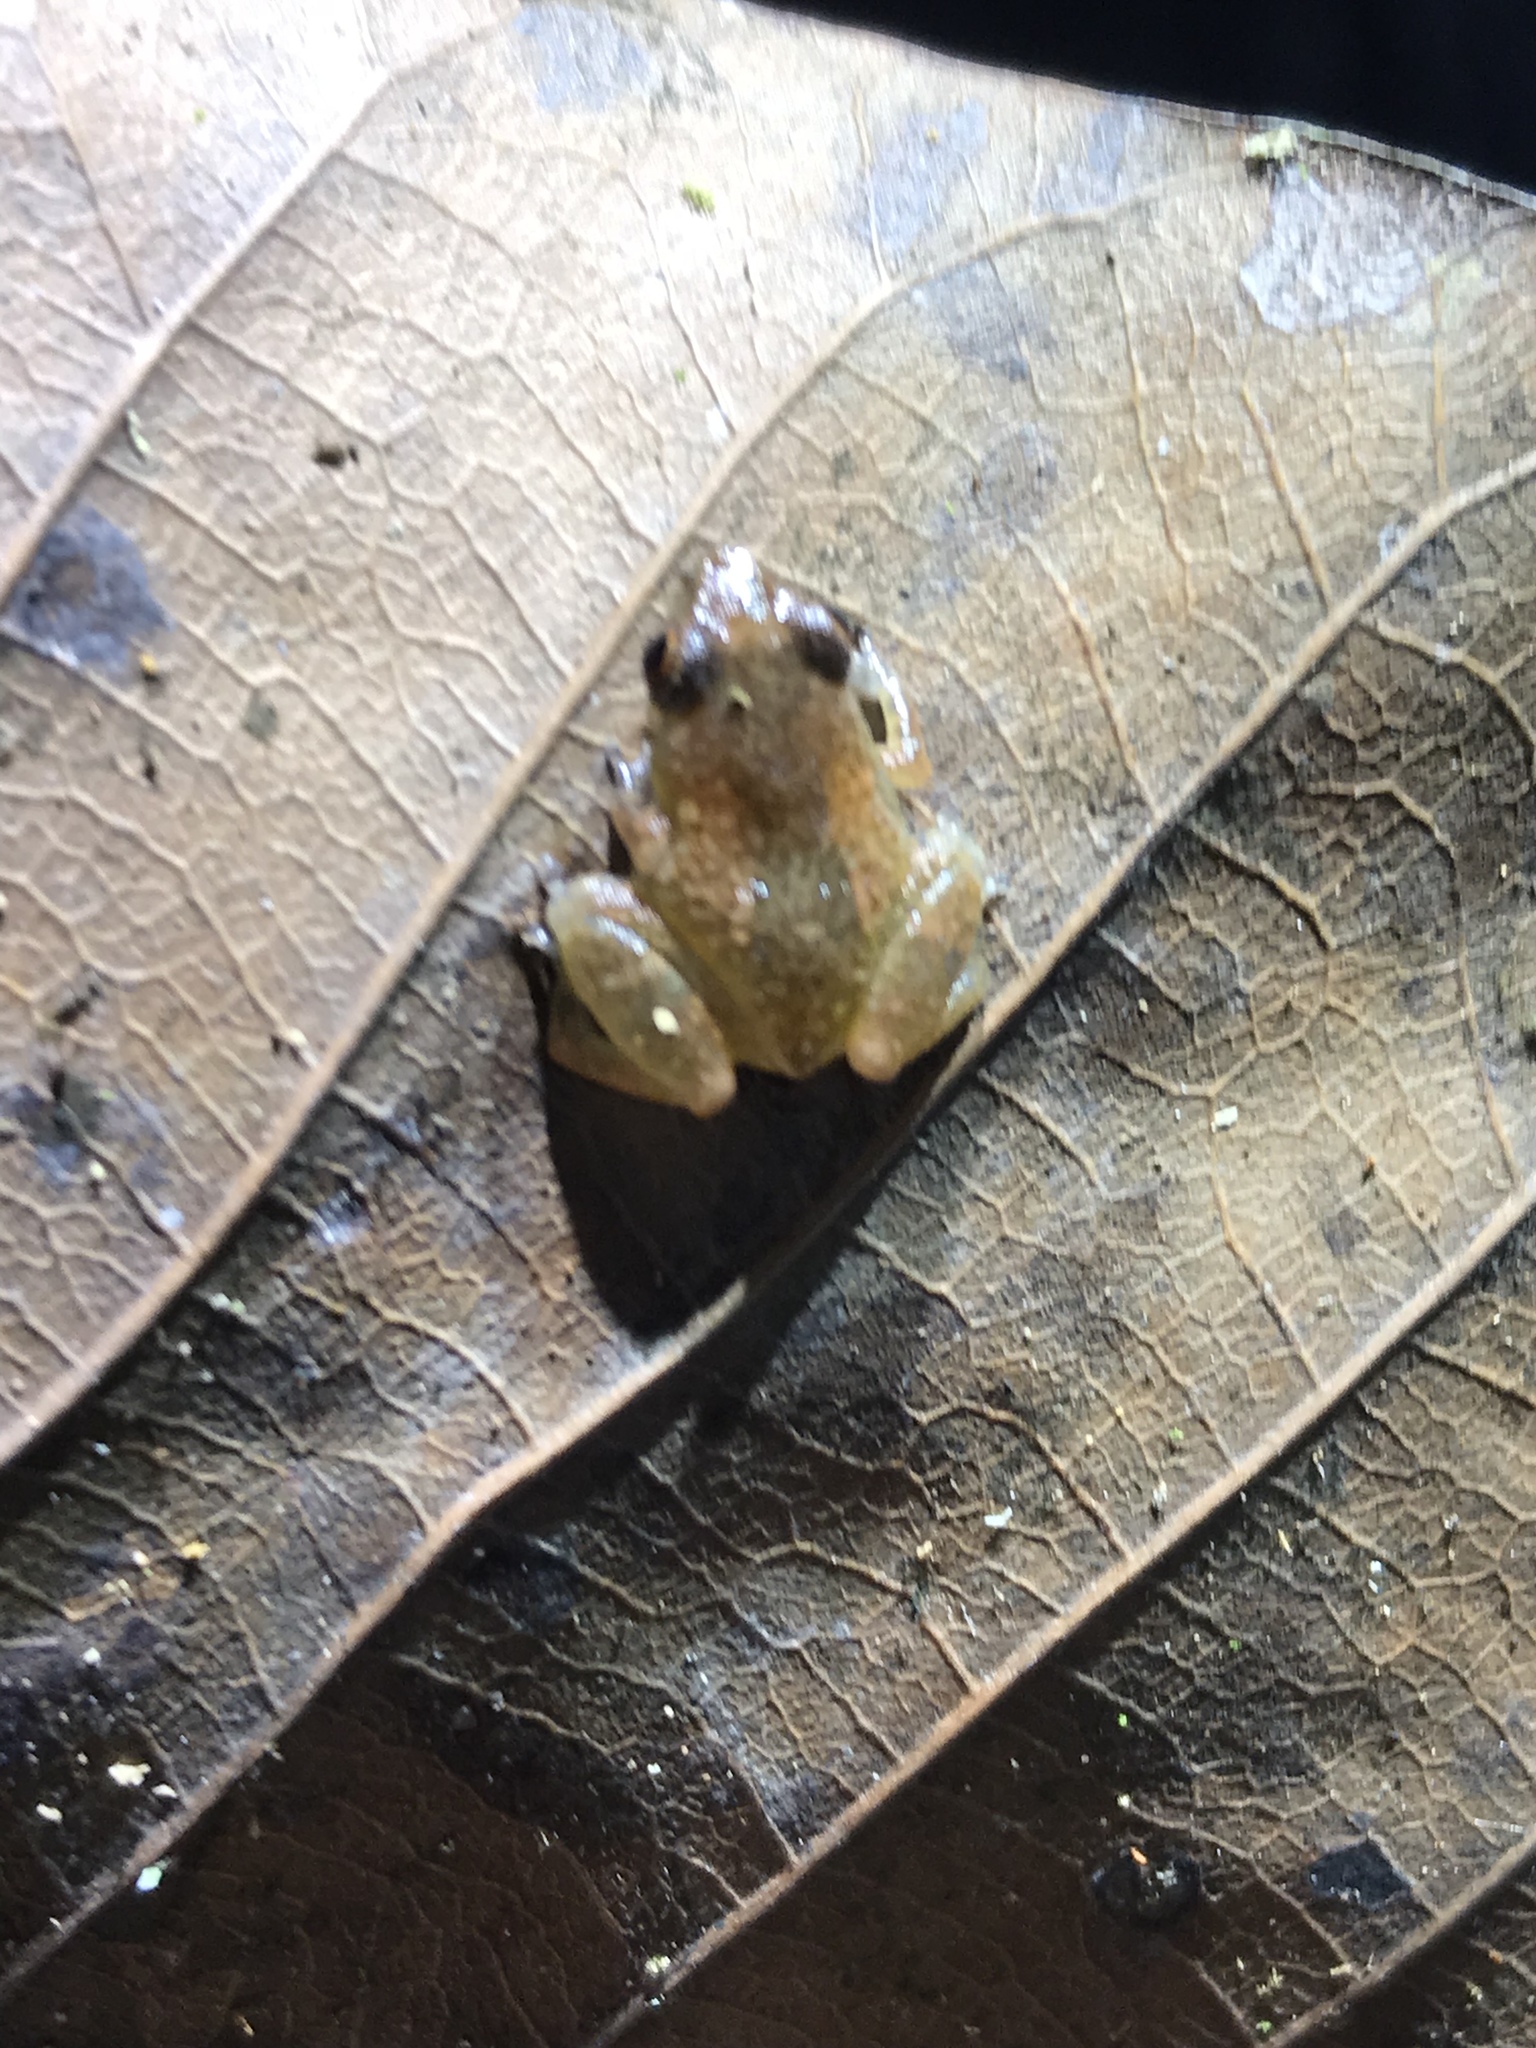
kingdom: Animalia
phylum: Chordata
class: Amphibia
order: Anura
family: Eleutherodactylidae
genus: Diasporus
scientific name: Diasporus diastema
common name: Caretta robber frog
